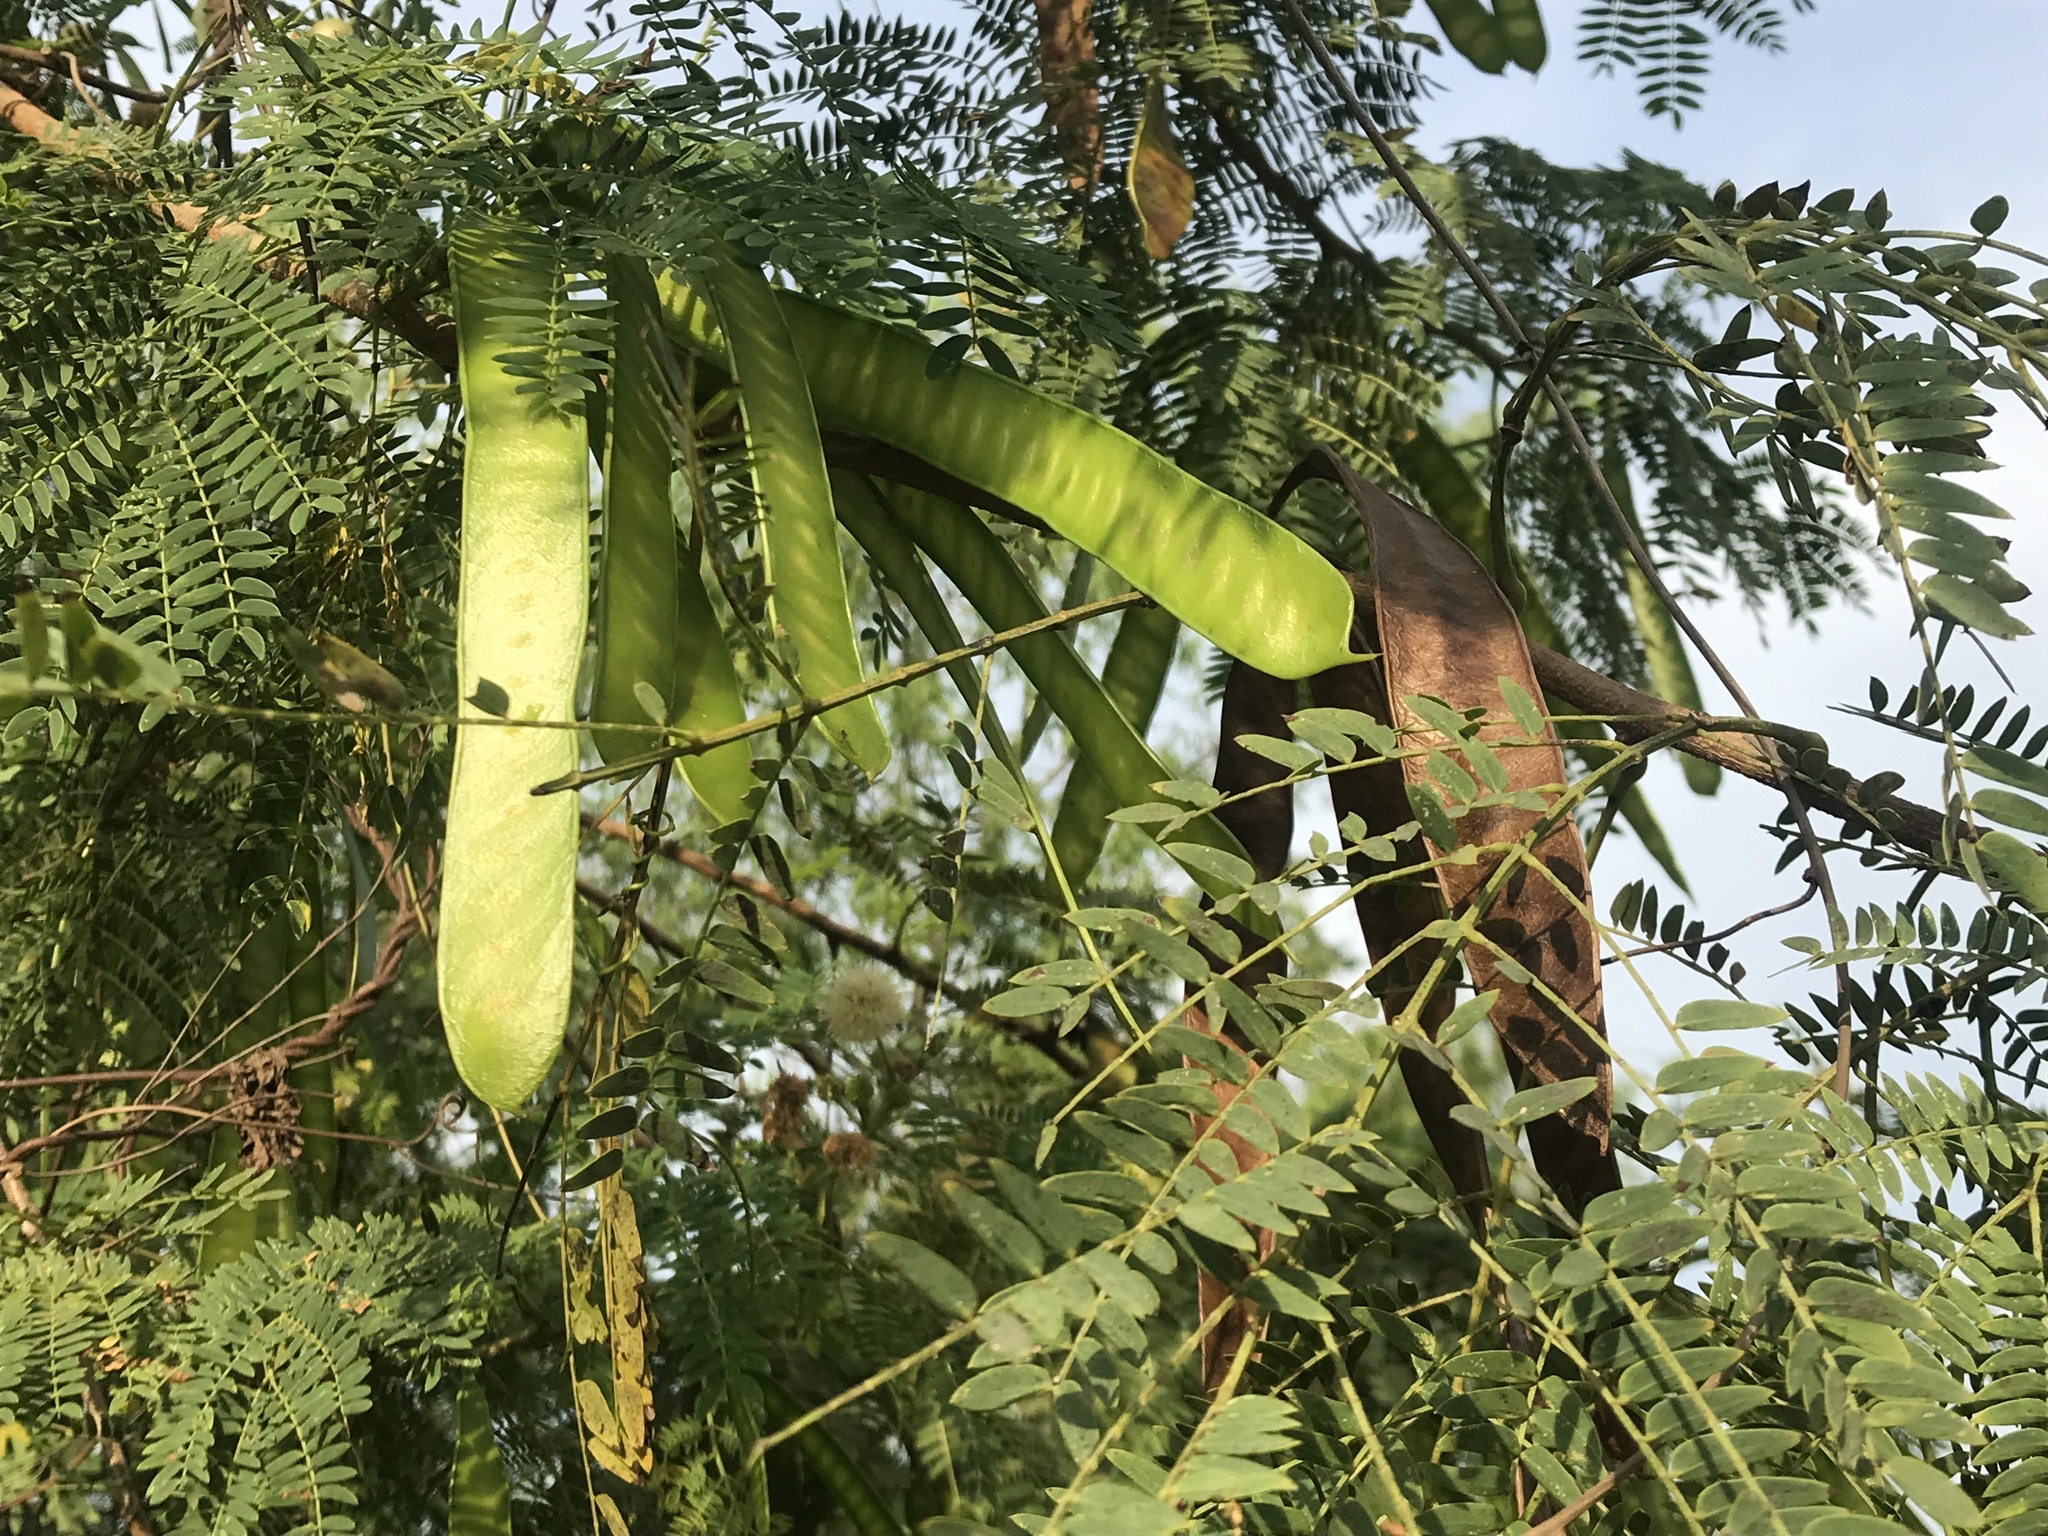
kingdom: Plantae
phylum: Tracheophyta
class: Magnoliopsida
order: Fabales
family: Fabaceae
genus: Leucaena
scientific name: Leucaena leucocephala
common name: White leadtree
